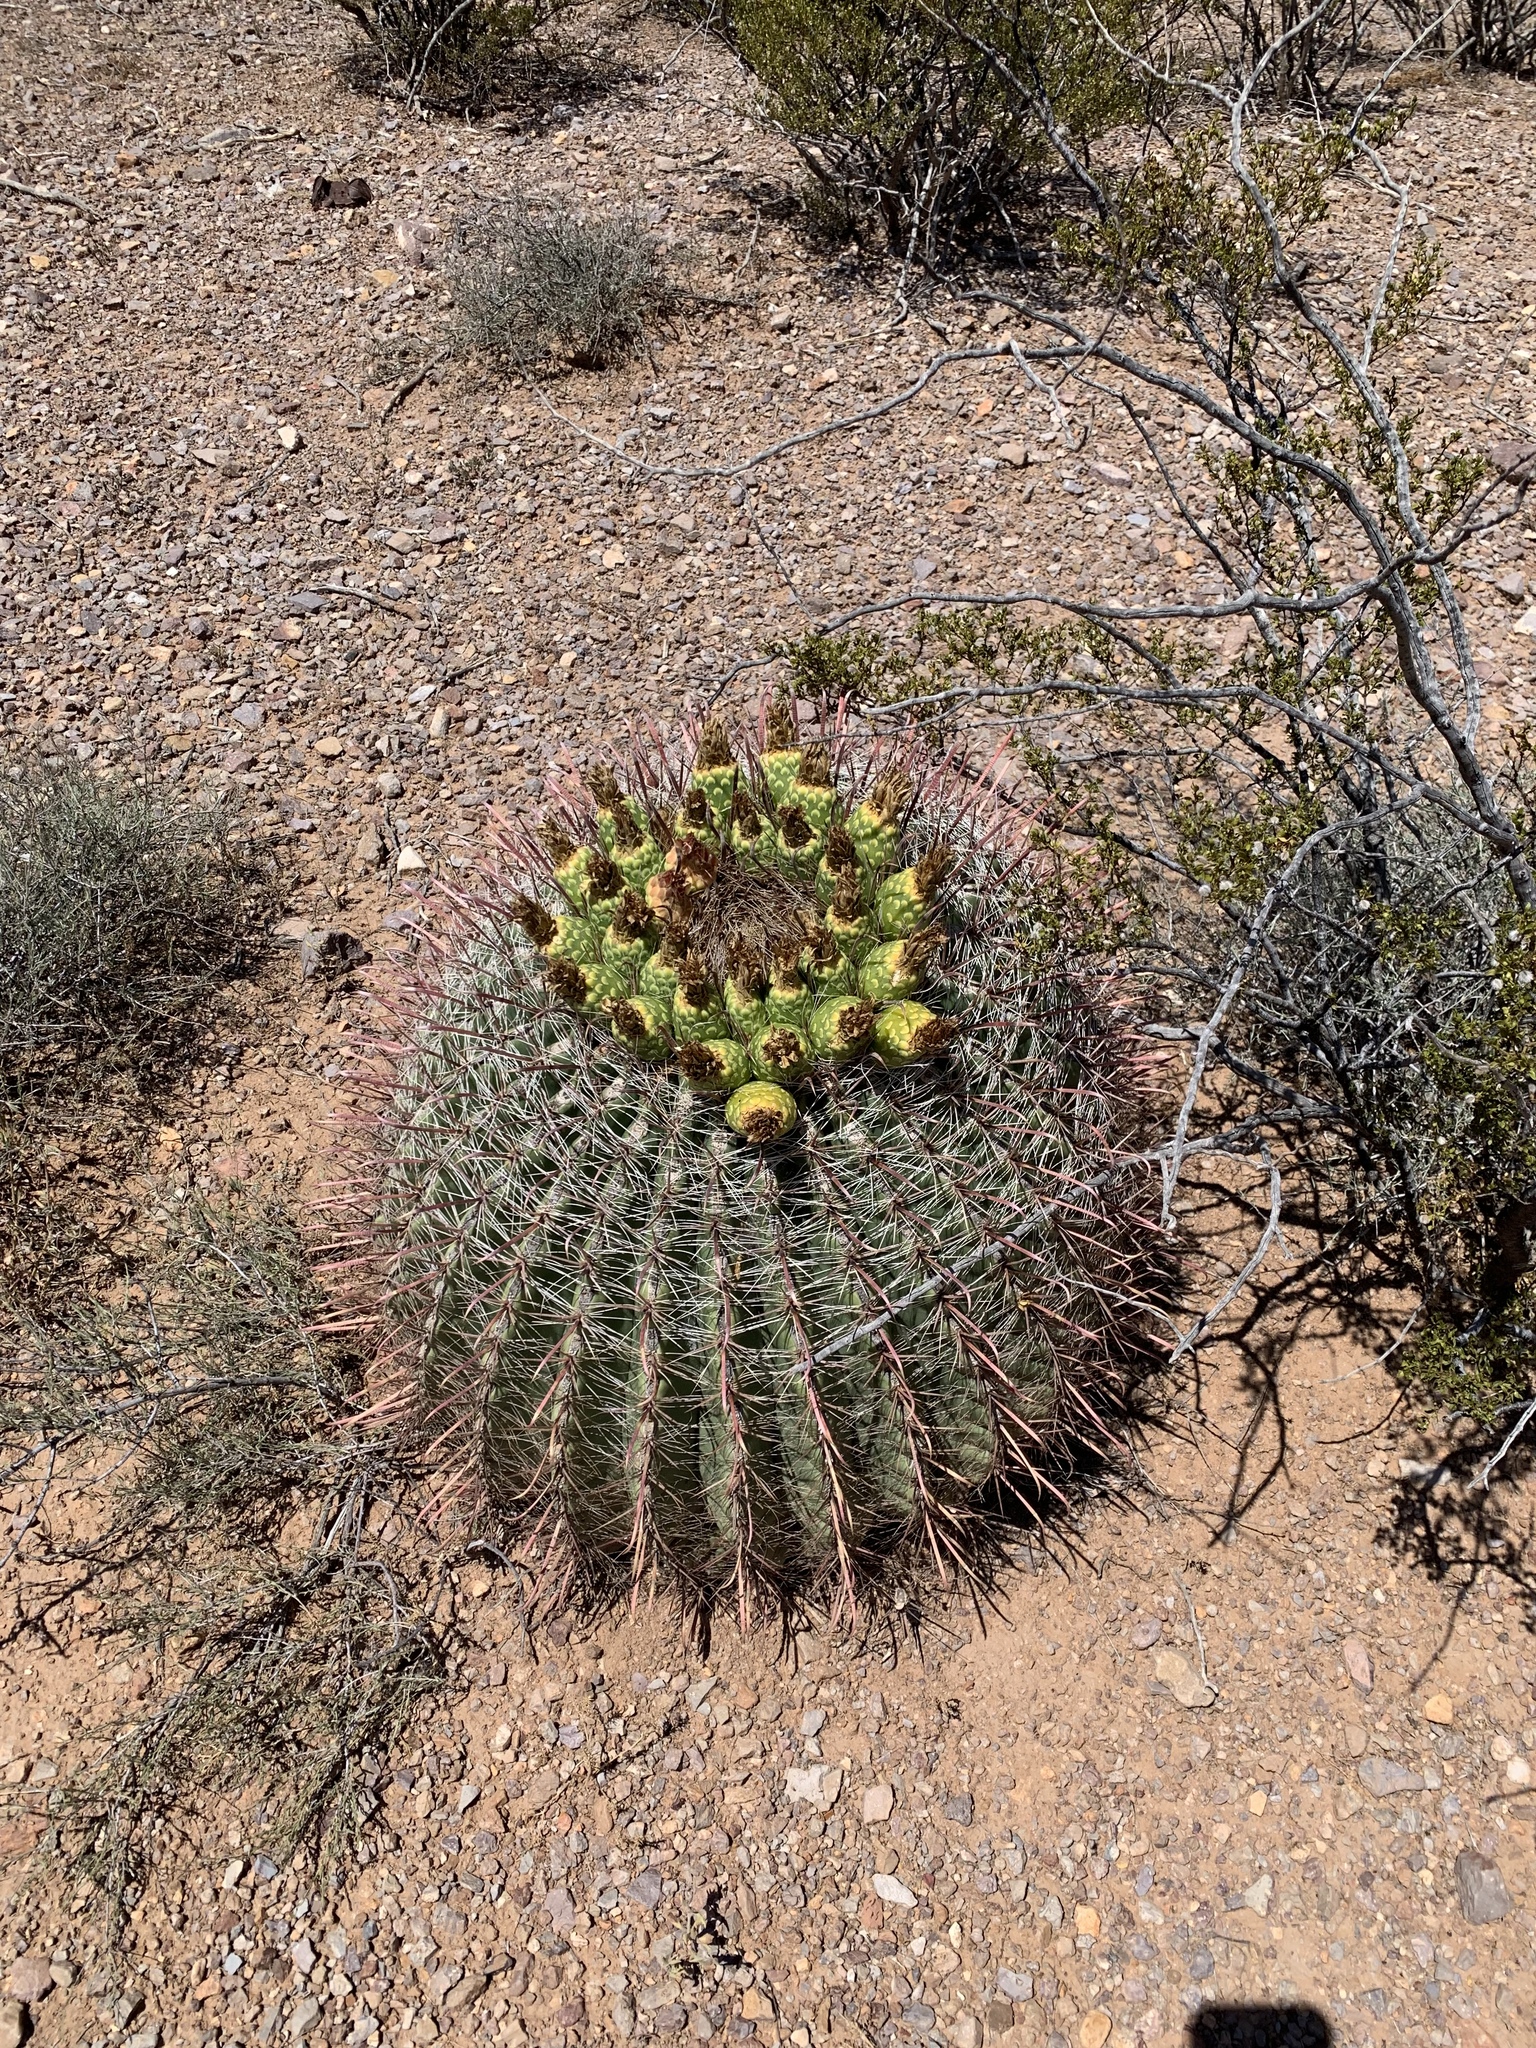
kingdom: Plantae
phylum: Tracheophyta
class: Magnoliopsida
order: Caryophyllales
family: Cactaceae
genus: Ferocactus
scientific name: Ferocactus wislizeni
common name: Candy barrel cactus
